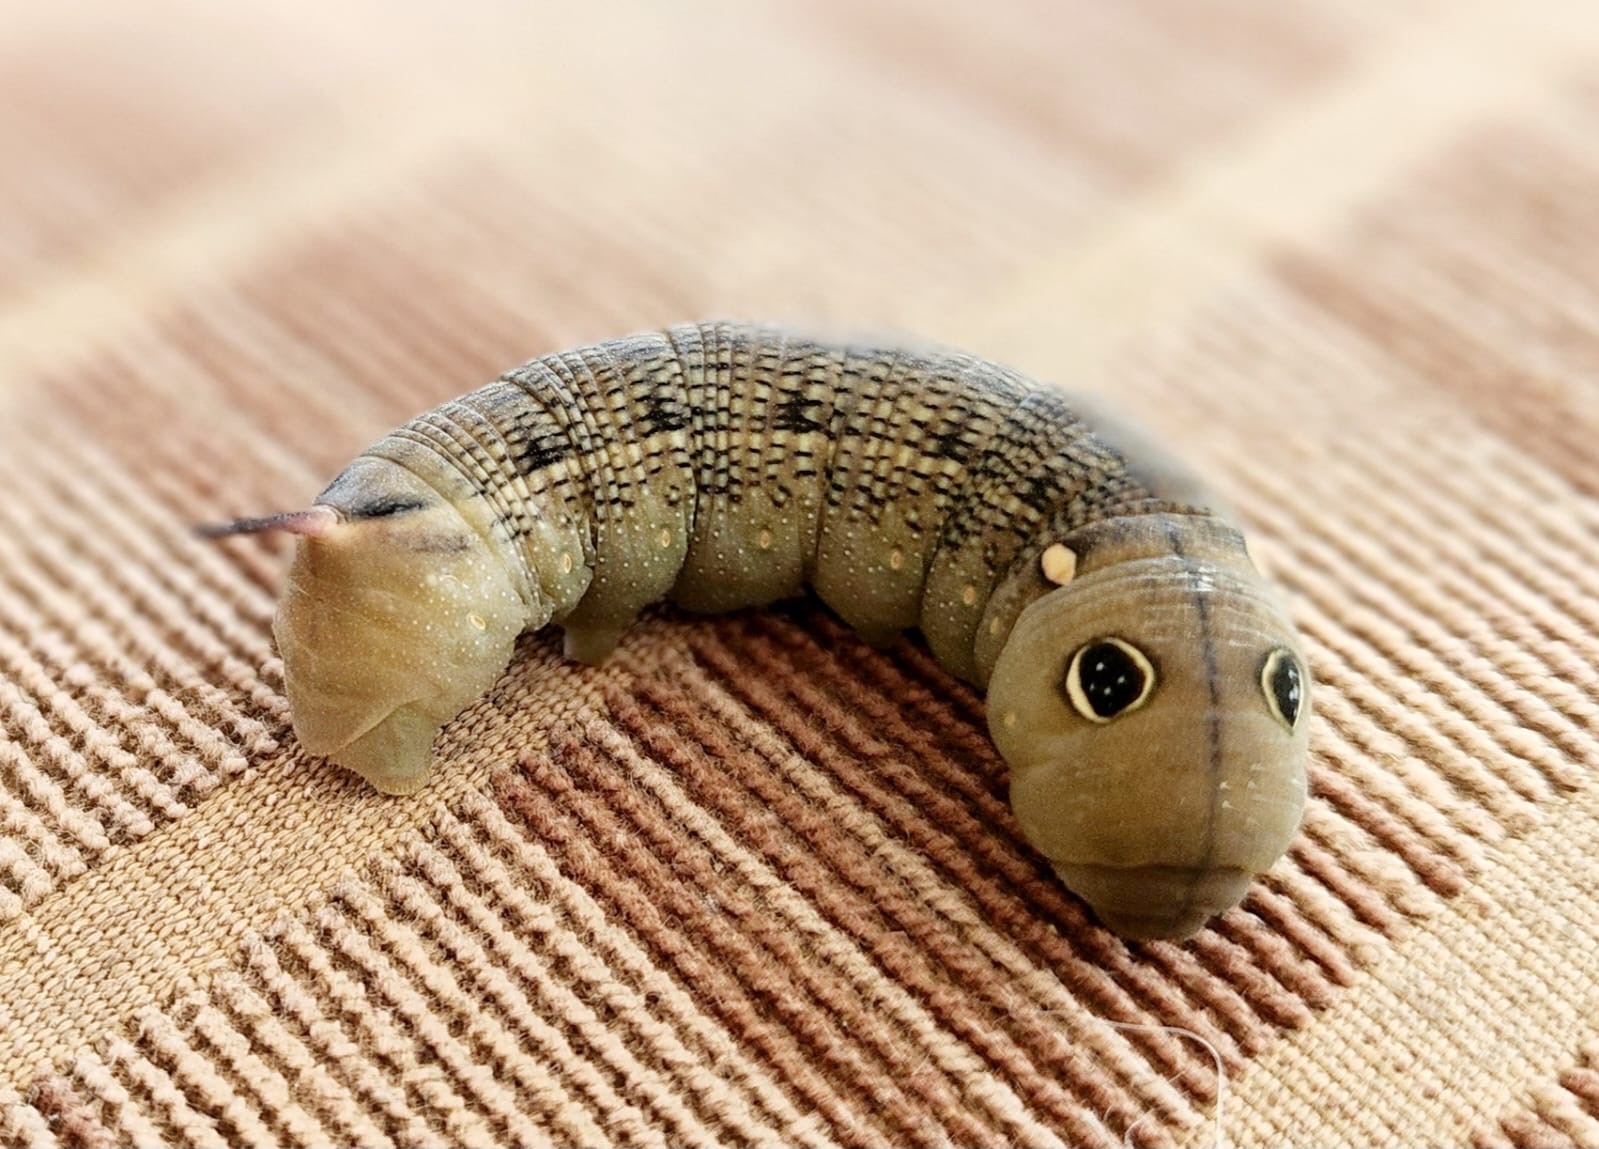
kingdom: Animalia
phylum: Arthropoda
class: Insecta
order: Lepidoptera
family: Sphingidae
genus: Hippotion
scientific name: Hippotion celerio
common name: Silver-striped hawk-moth
